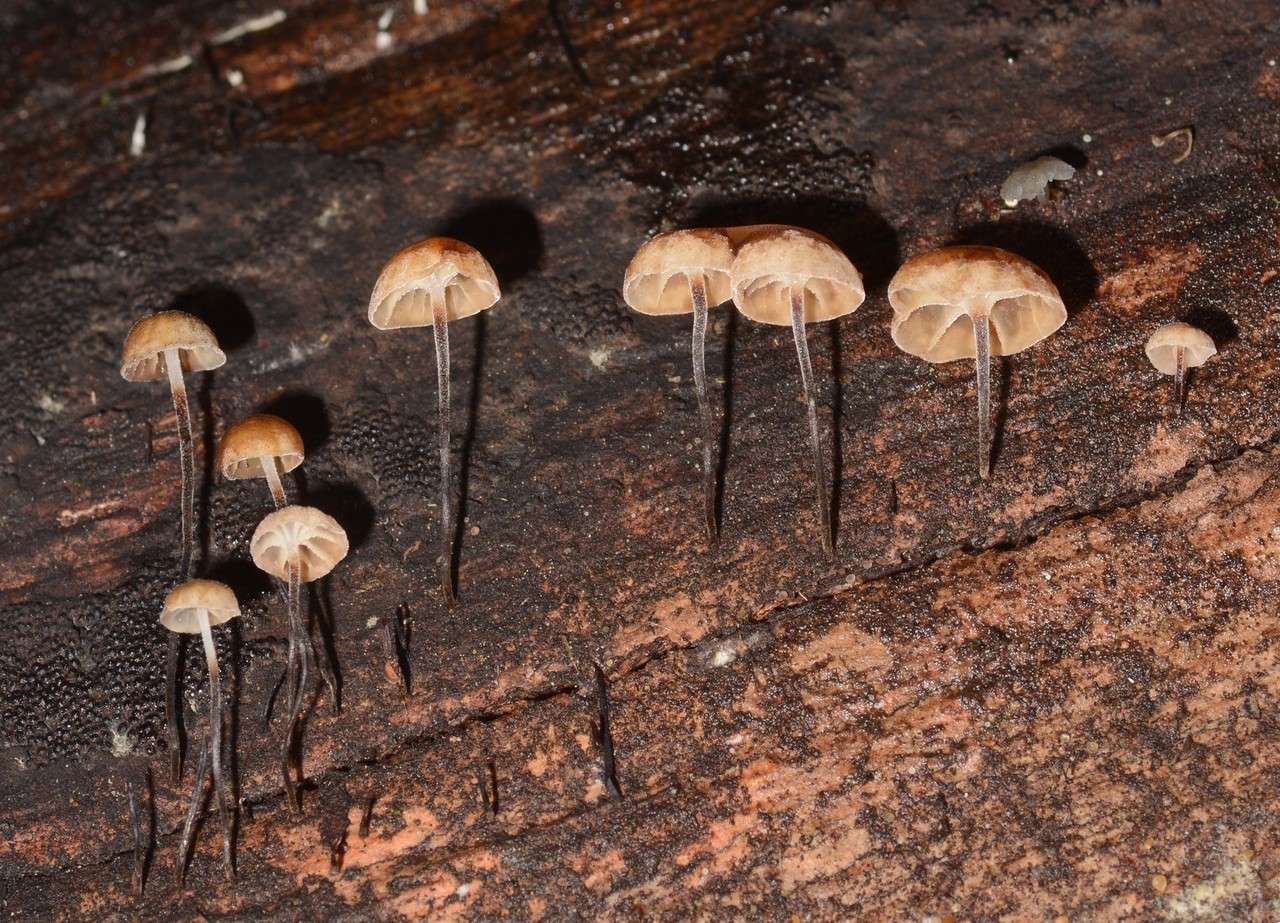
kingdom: Fungi
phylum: Basidiomycota
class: Agaricomycetes
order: Agaricales
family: Marasmiaceae
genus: Marasmius
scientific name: Marasmius alveolaris
